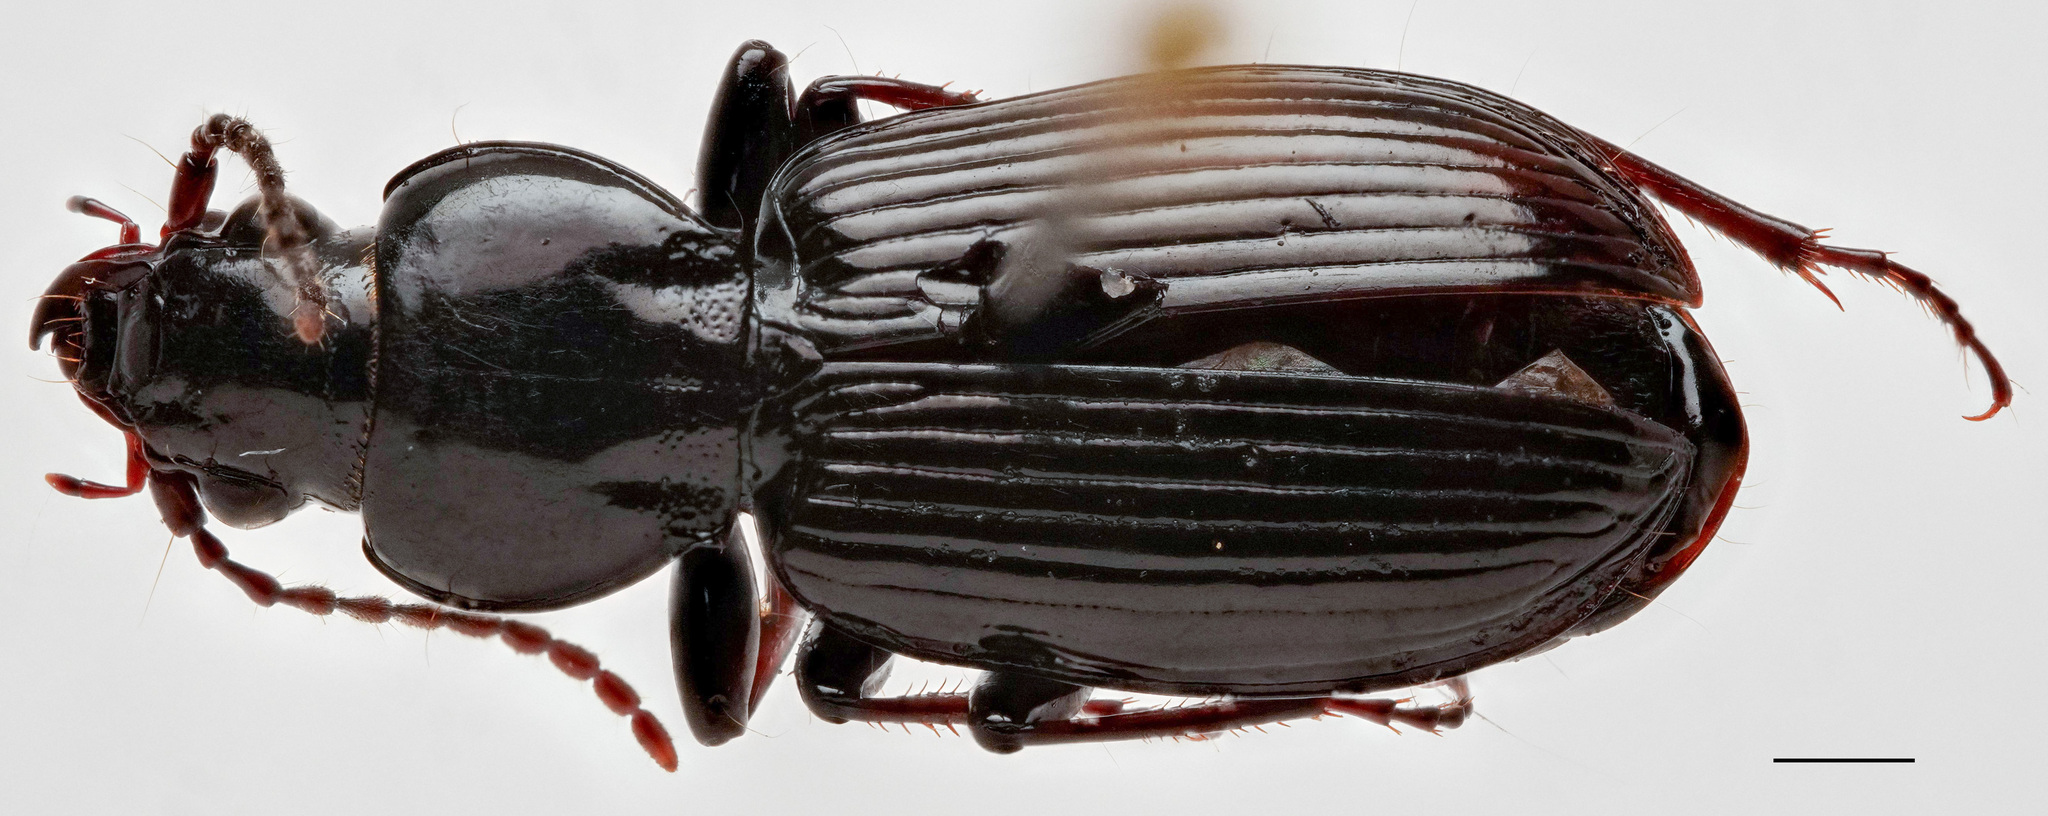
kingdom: Animalia
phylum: Arthropoda
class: Insecta
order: Coleoptera
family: Carabidae
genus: Pterostichus
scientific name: Pterostichus caudicalis
